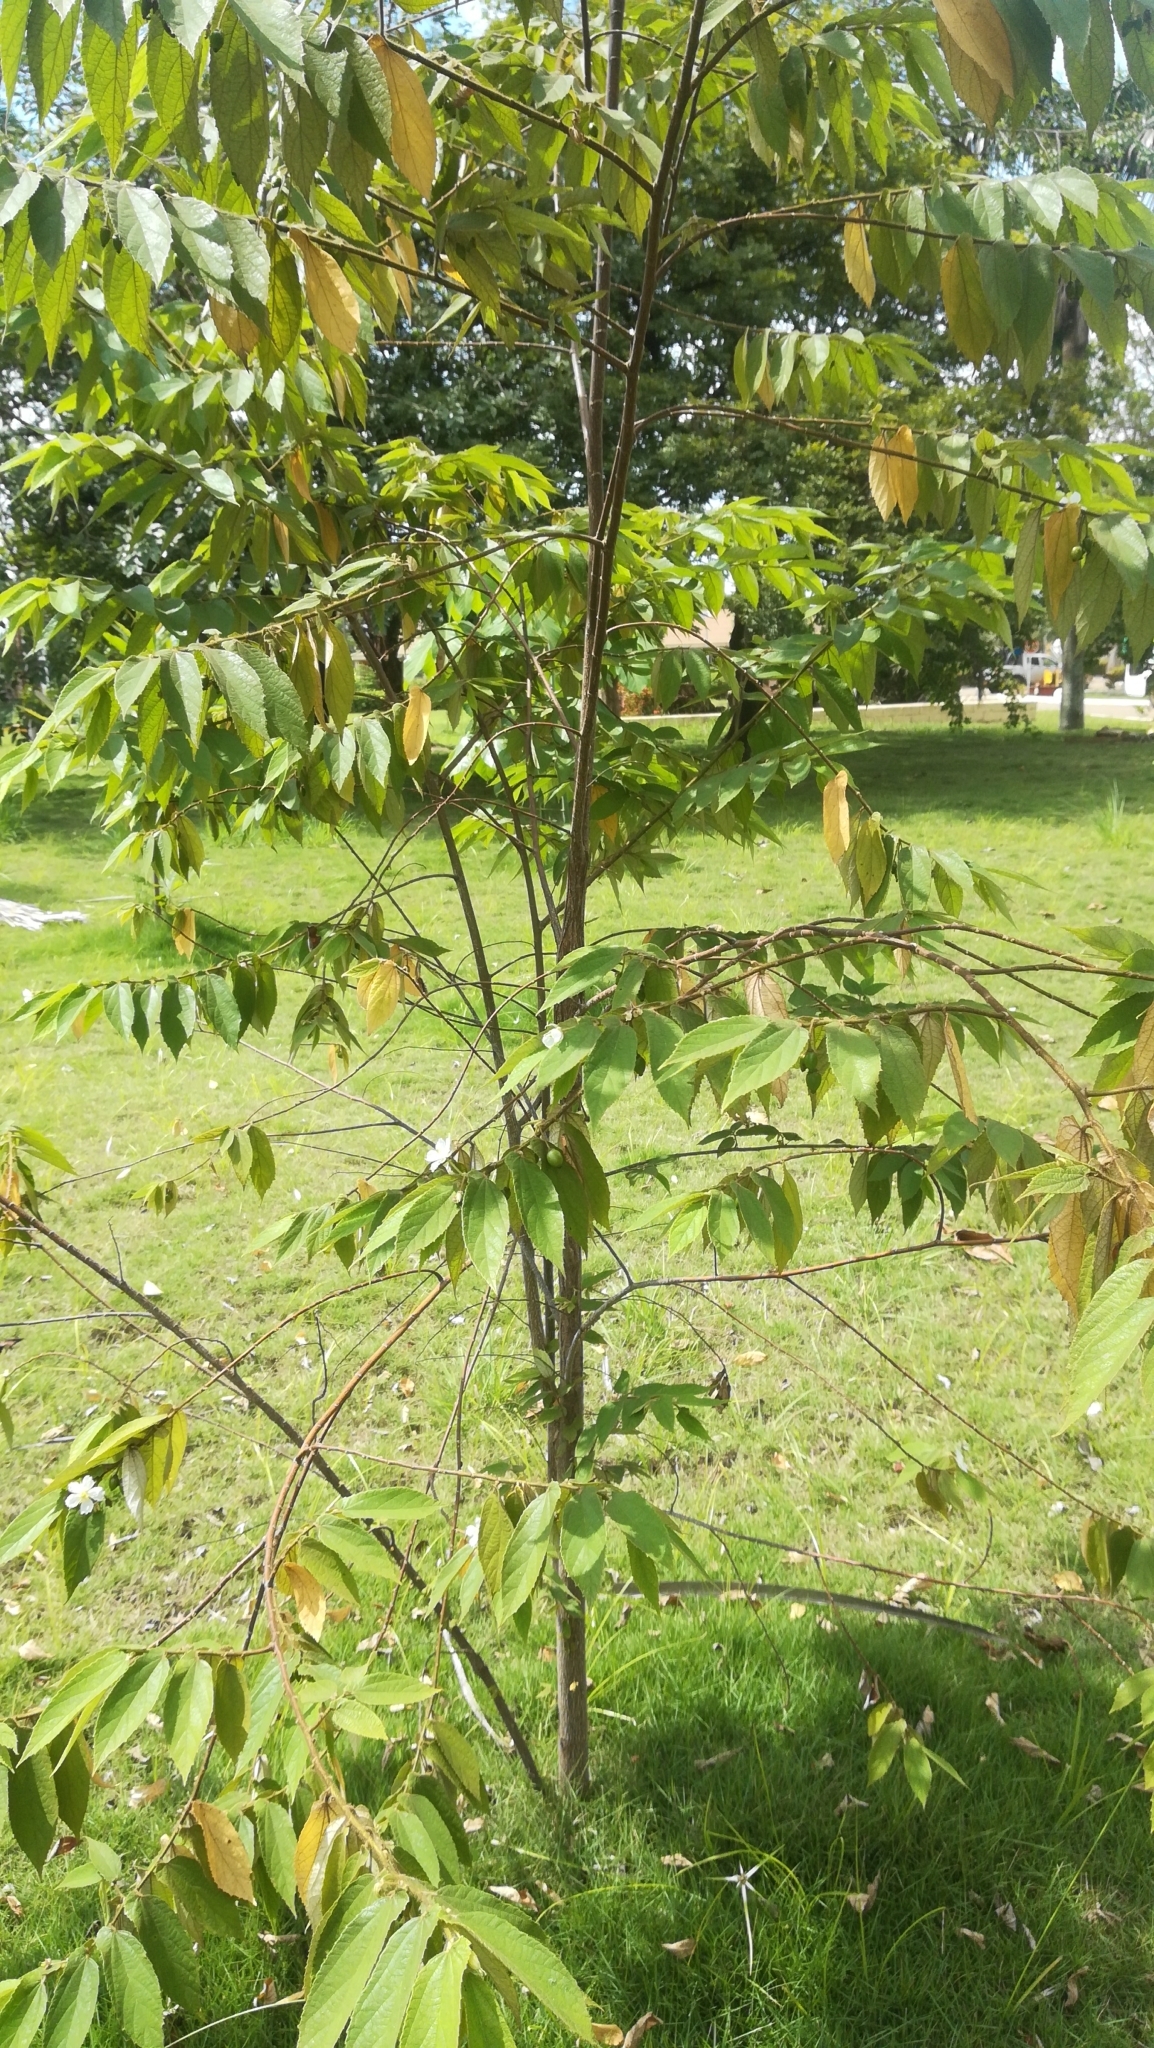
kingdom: Plantae
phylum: Tracheophyta
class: Magnoliopsida
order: Malvales
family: Muntingiaceae
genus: Muntingia
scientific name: Muntingia calabura
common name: Strawberrytree
